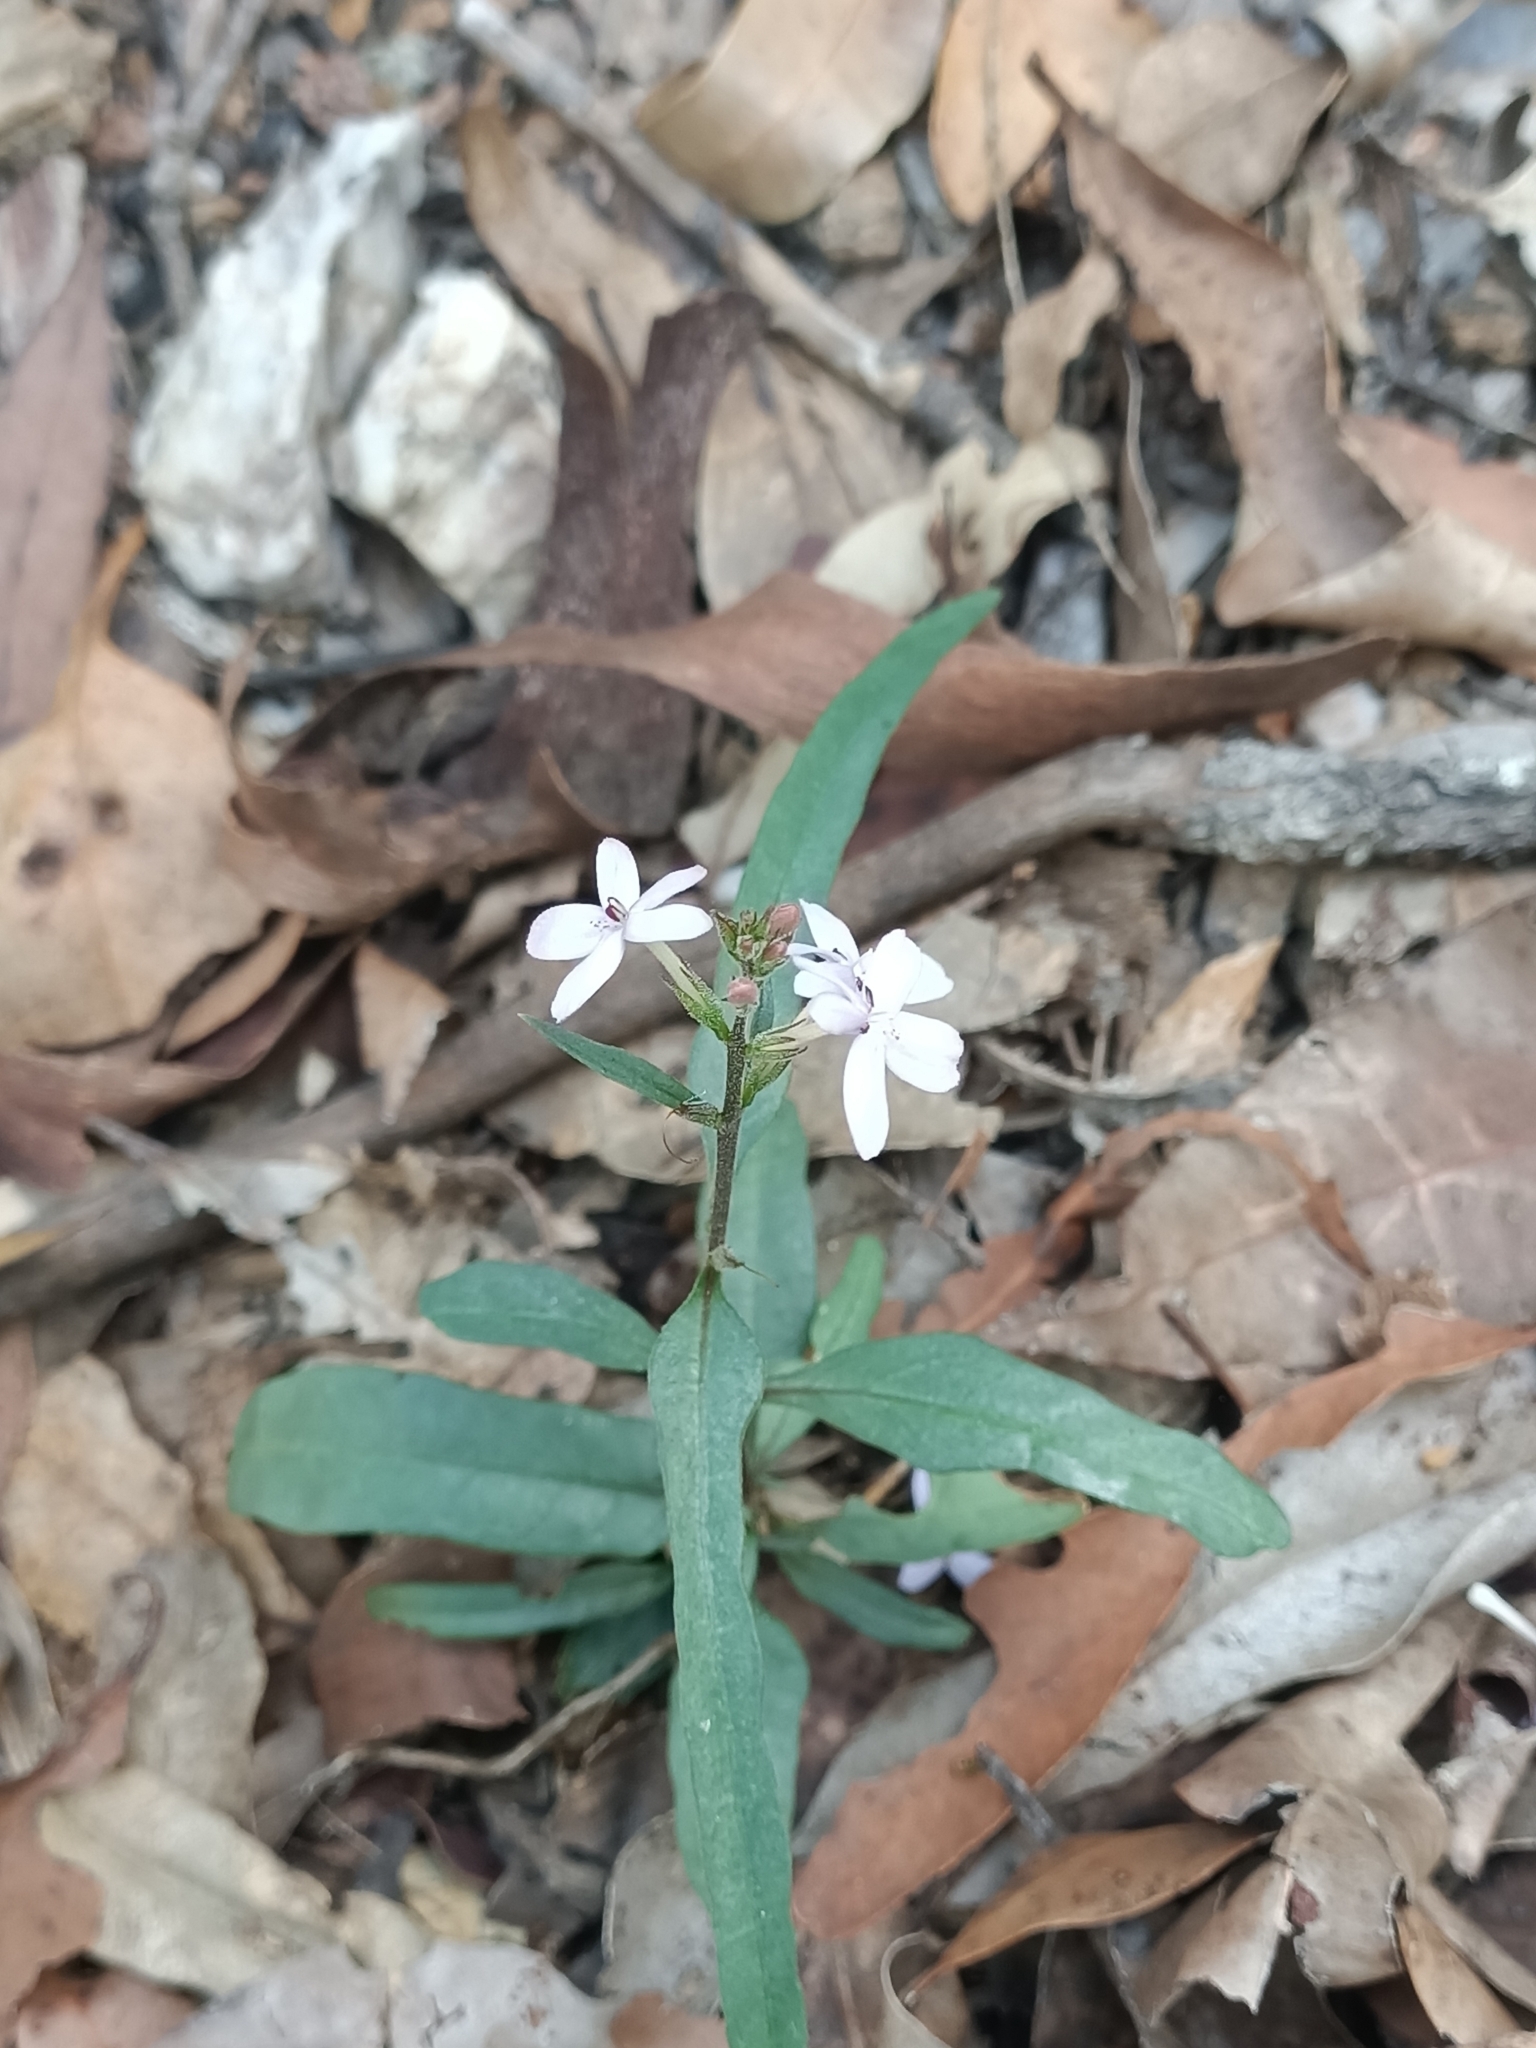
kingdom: Plantae
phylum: Tracheophyta
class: Magnoliopsida
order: Lamiales
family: Acanthaceae
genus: Pseuderanthemum
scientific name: Pseuderanthemum variabile
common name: Night and afternoon
